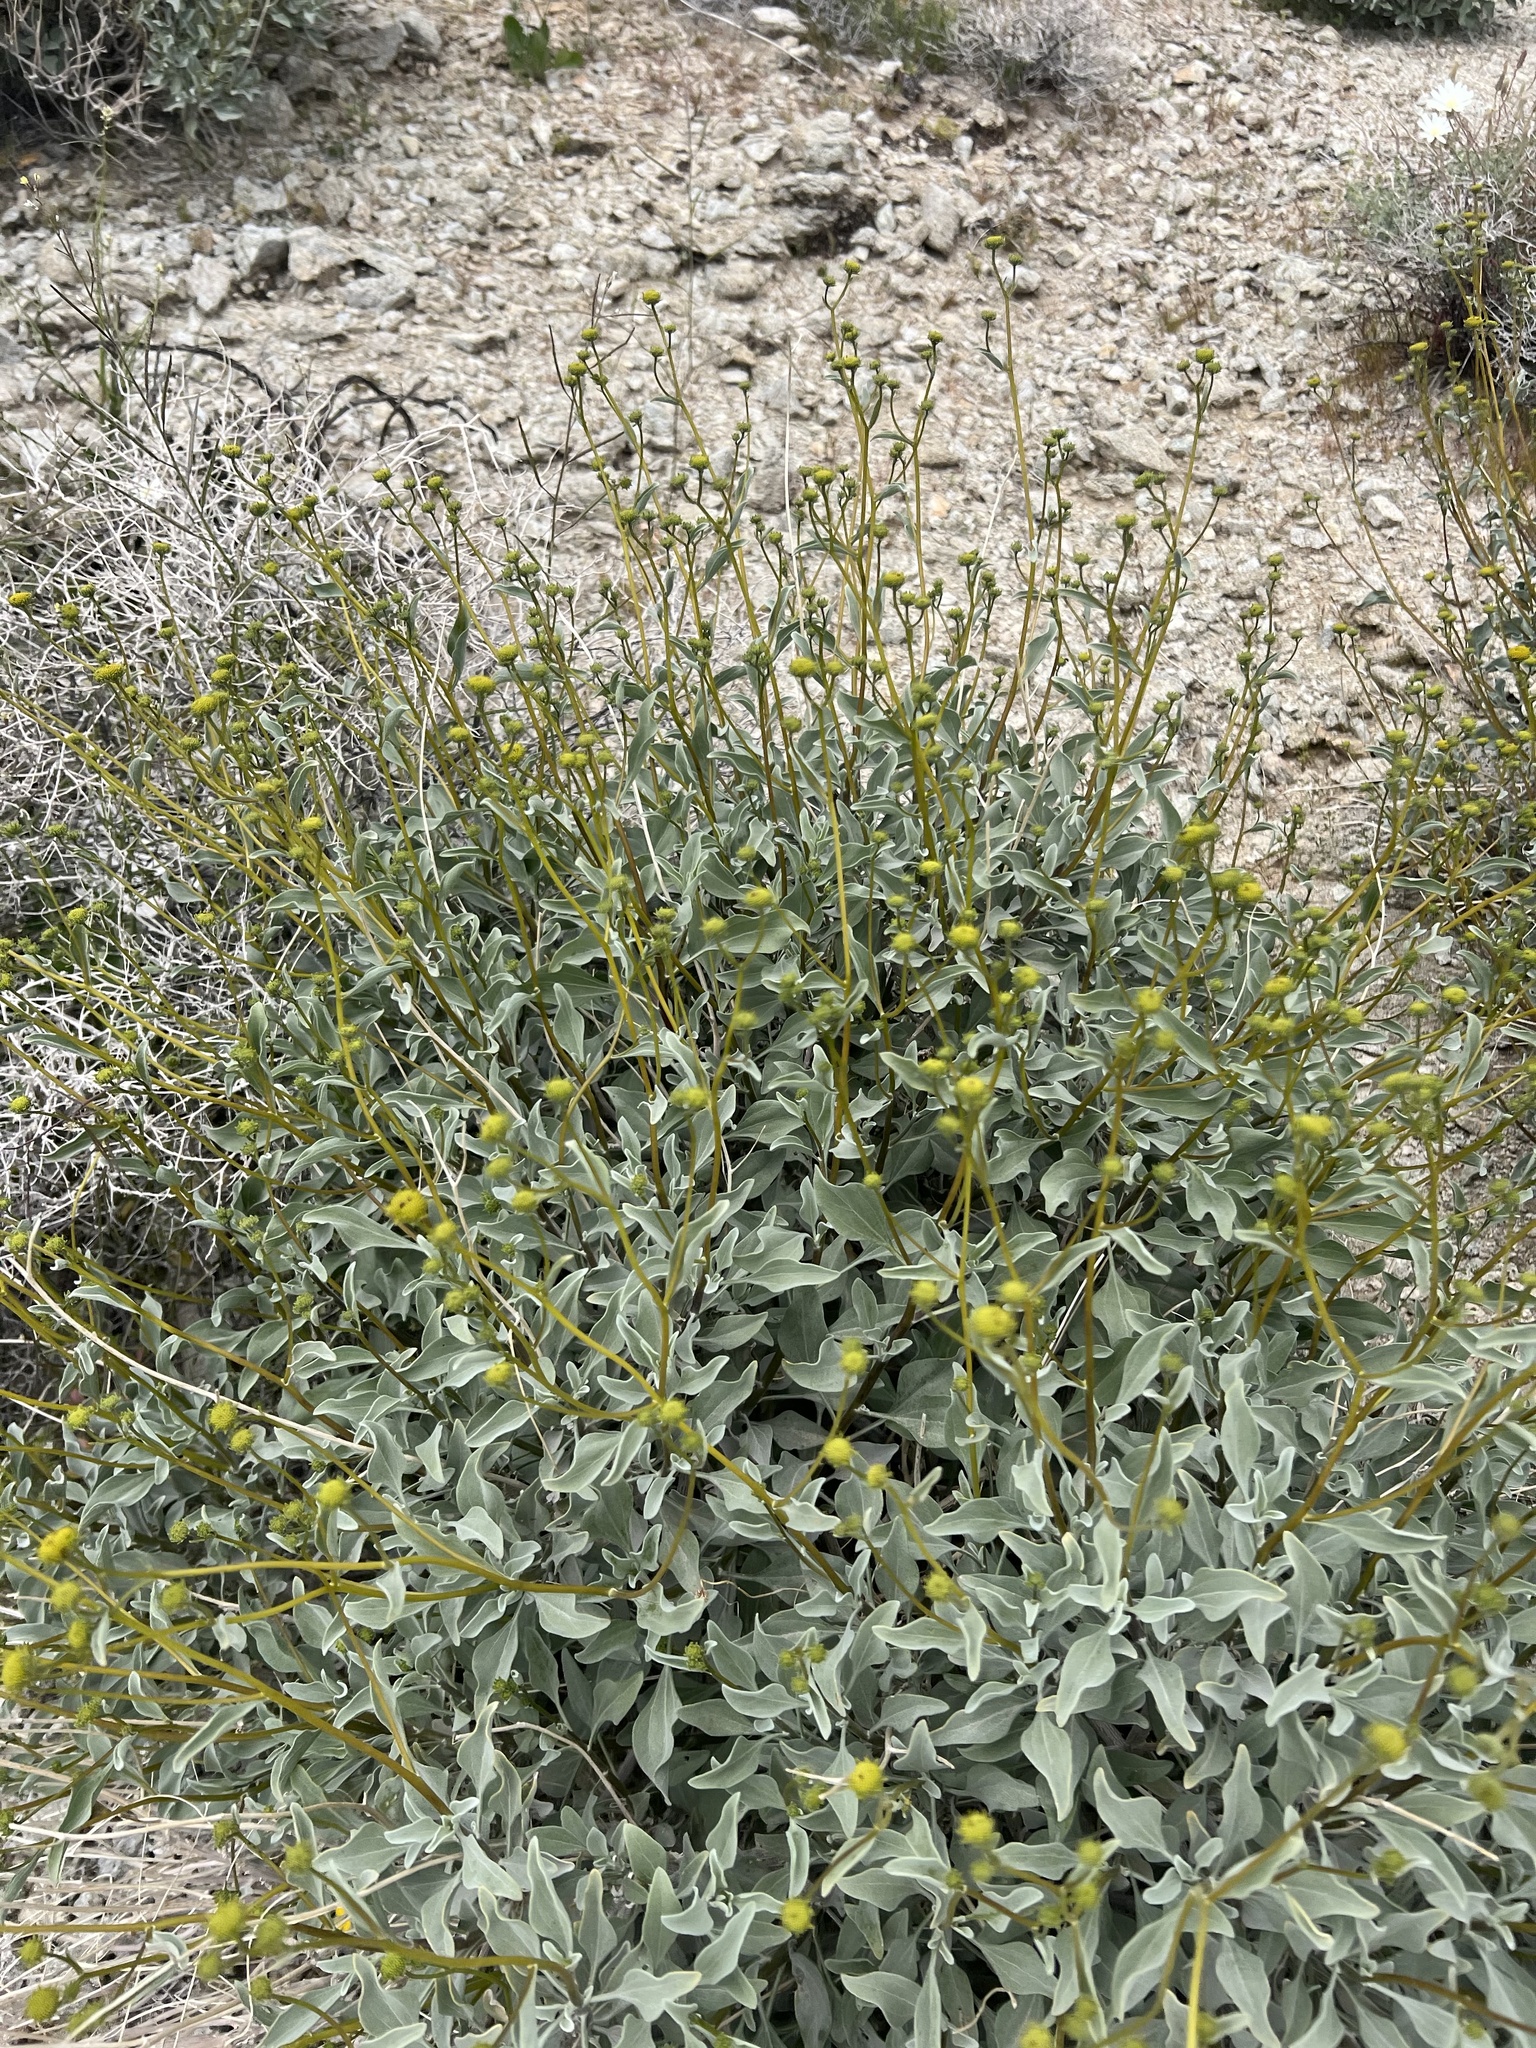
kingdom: Plantae
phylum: Tracheophyta
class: Magnoliopsida
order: Asterales
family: Asteraceae
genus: Encelia
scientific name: Encelia farinosa
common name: Brittlebush
